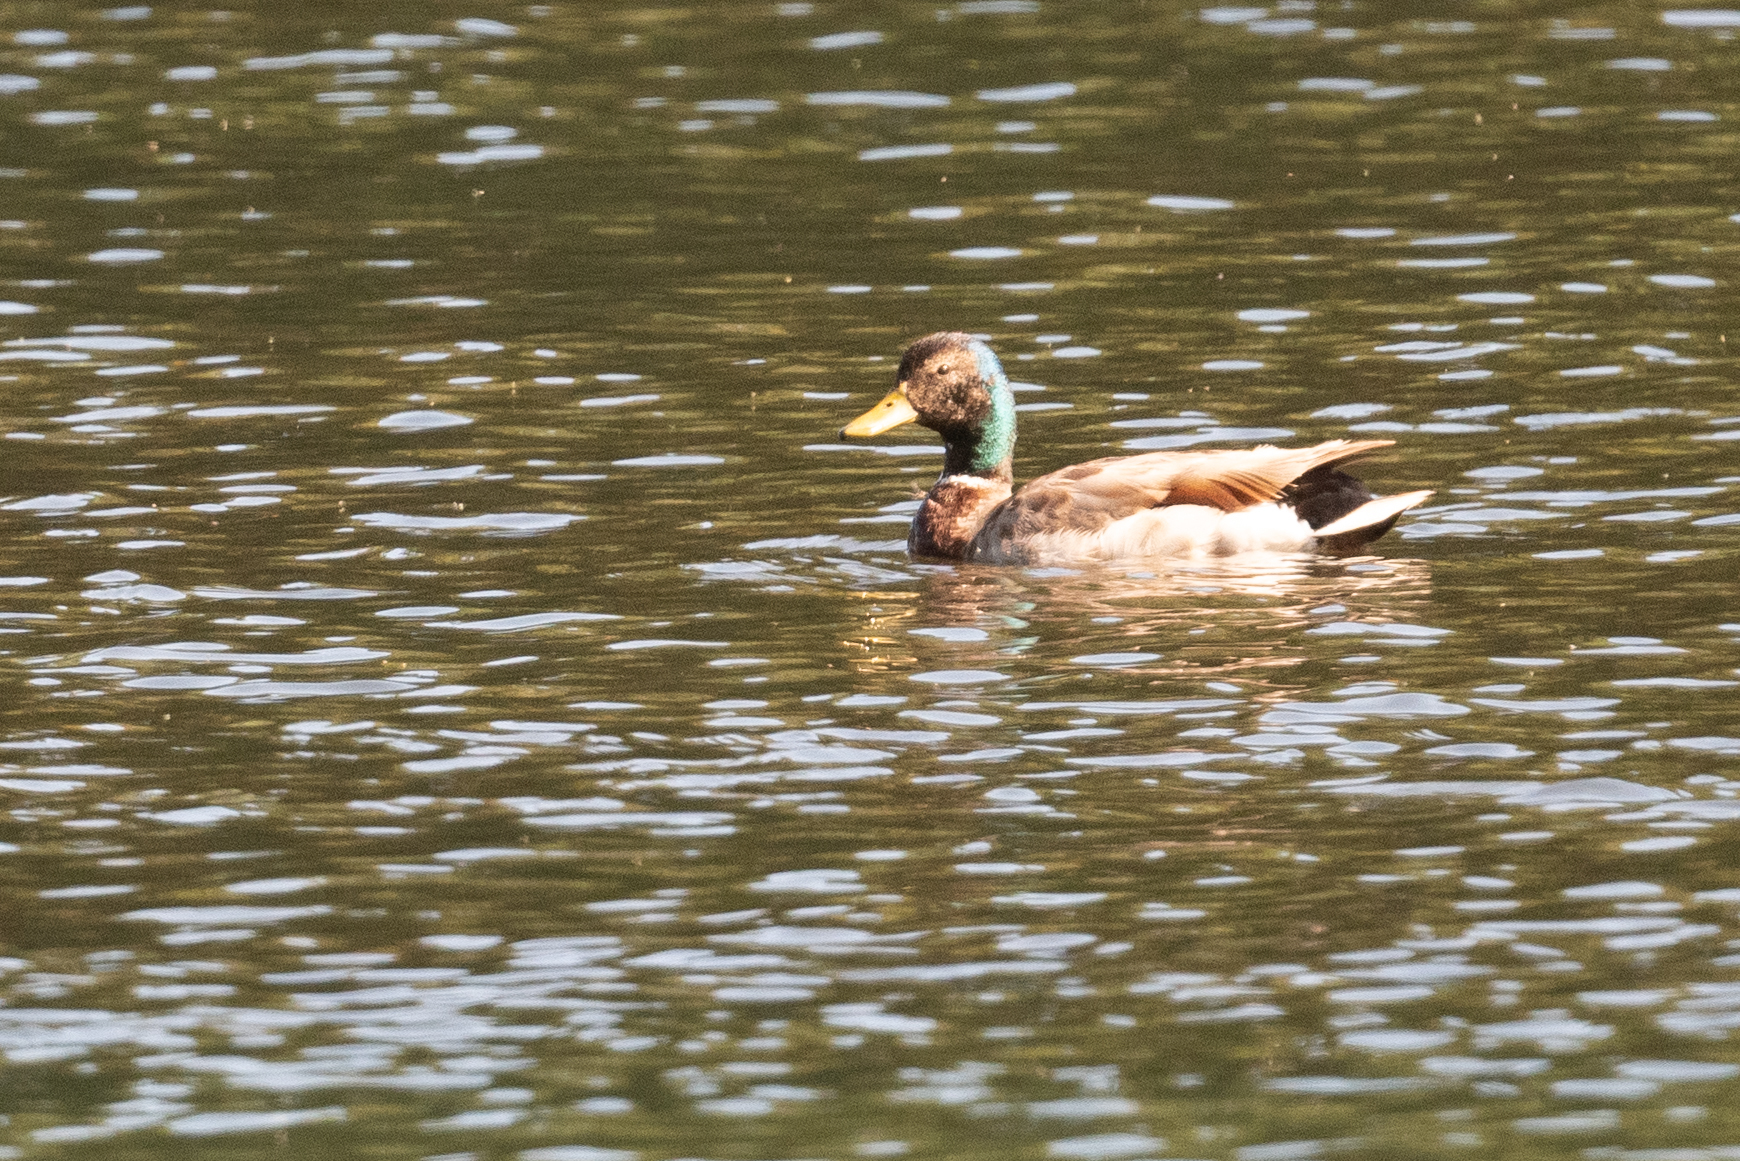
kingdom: Animalia
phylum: Chordata
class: Aves
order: Anseriformes
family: Anatidae
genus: Anas
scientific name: Anas platyrhynchos
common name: Mallard
